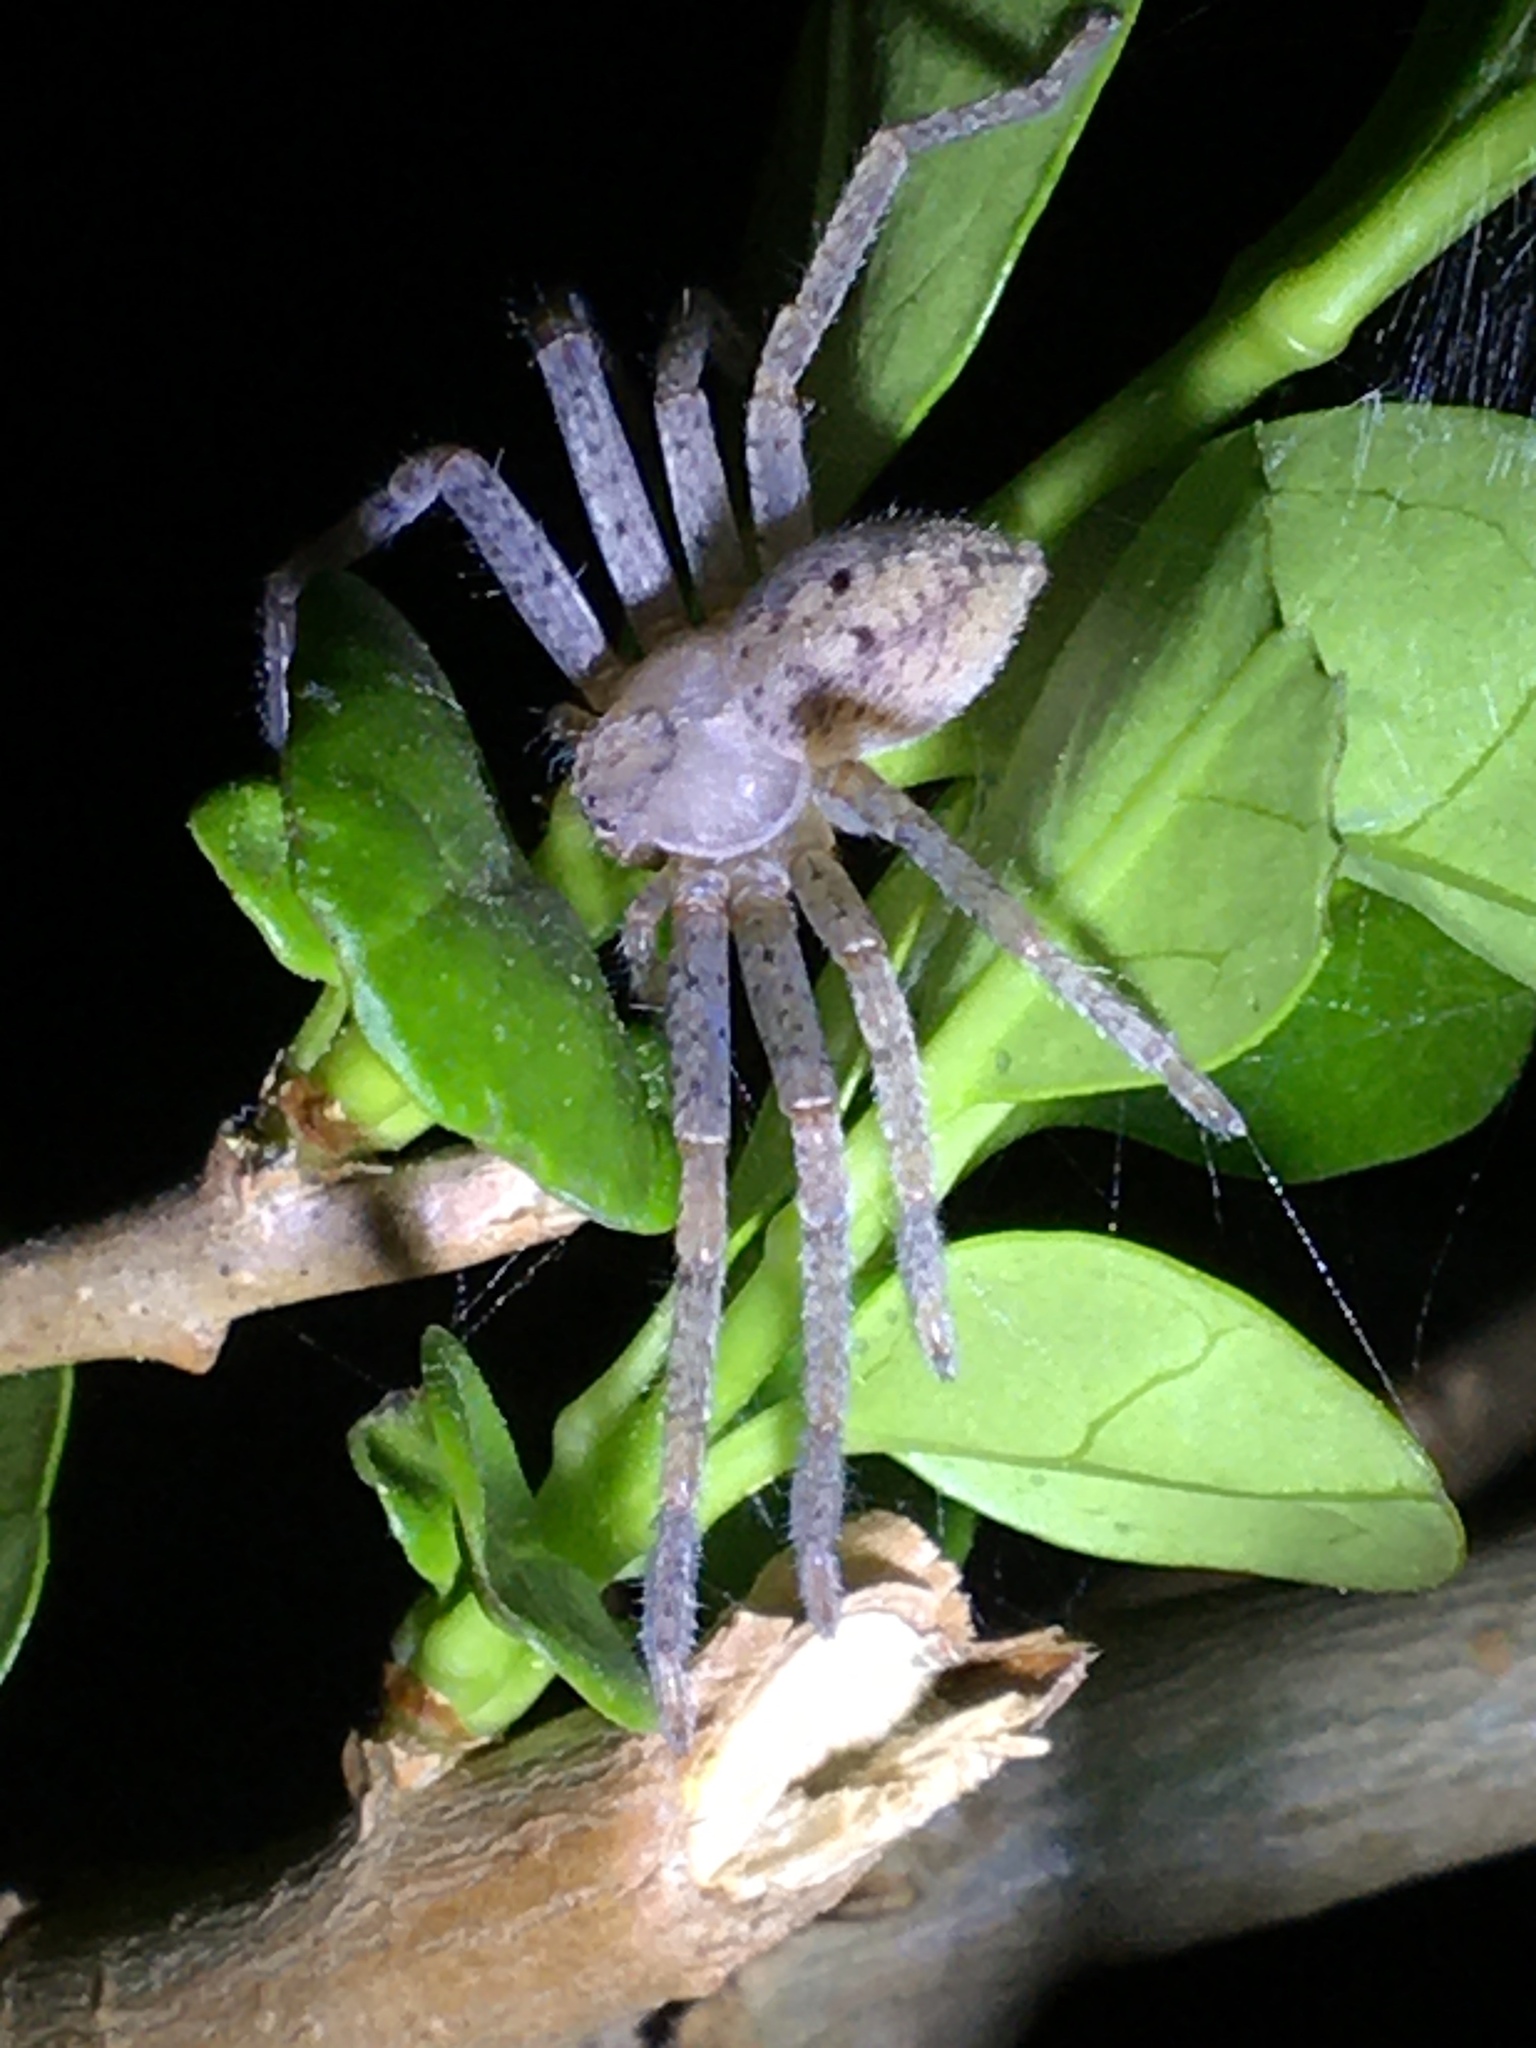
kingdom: Animalia
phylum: Arthropoda
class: Arachnida
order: Araneae
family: Sparassidae
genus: Olios
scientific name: Olios argelasius
